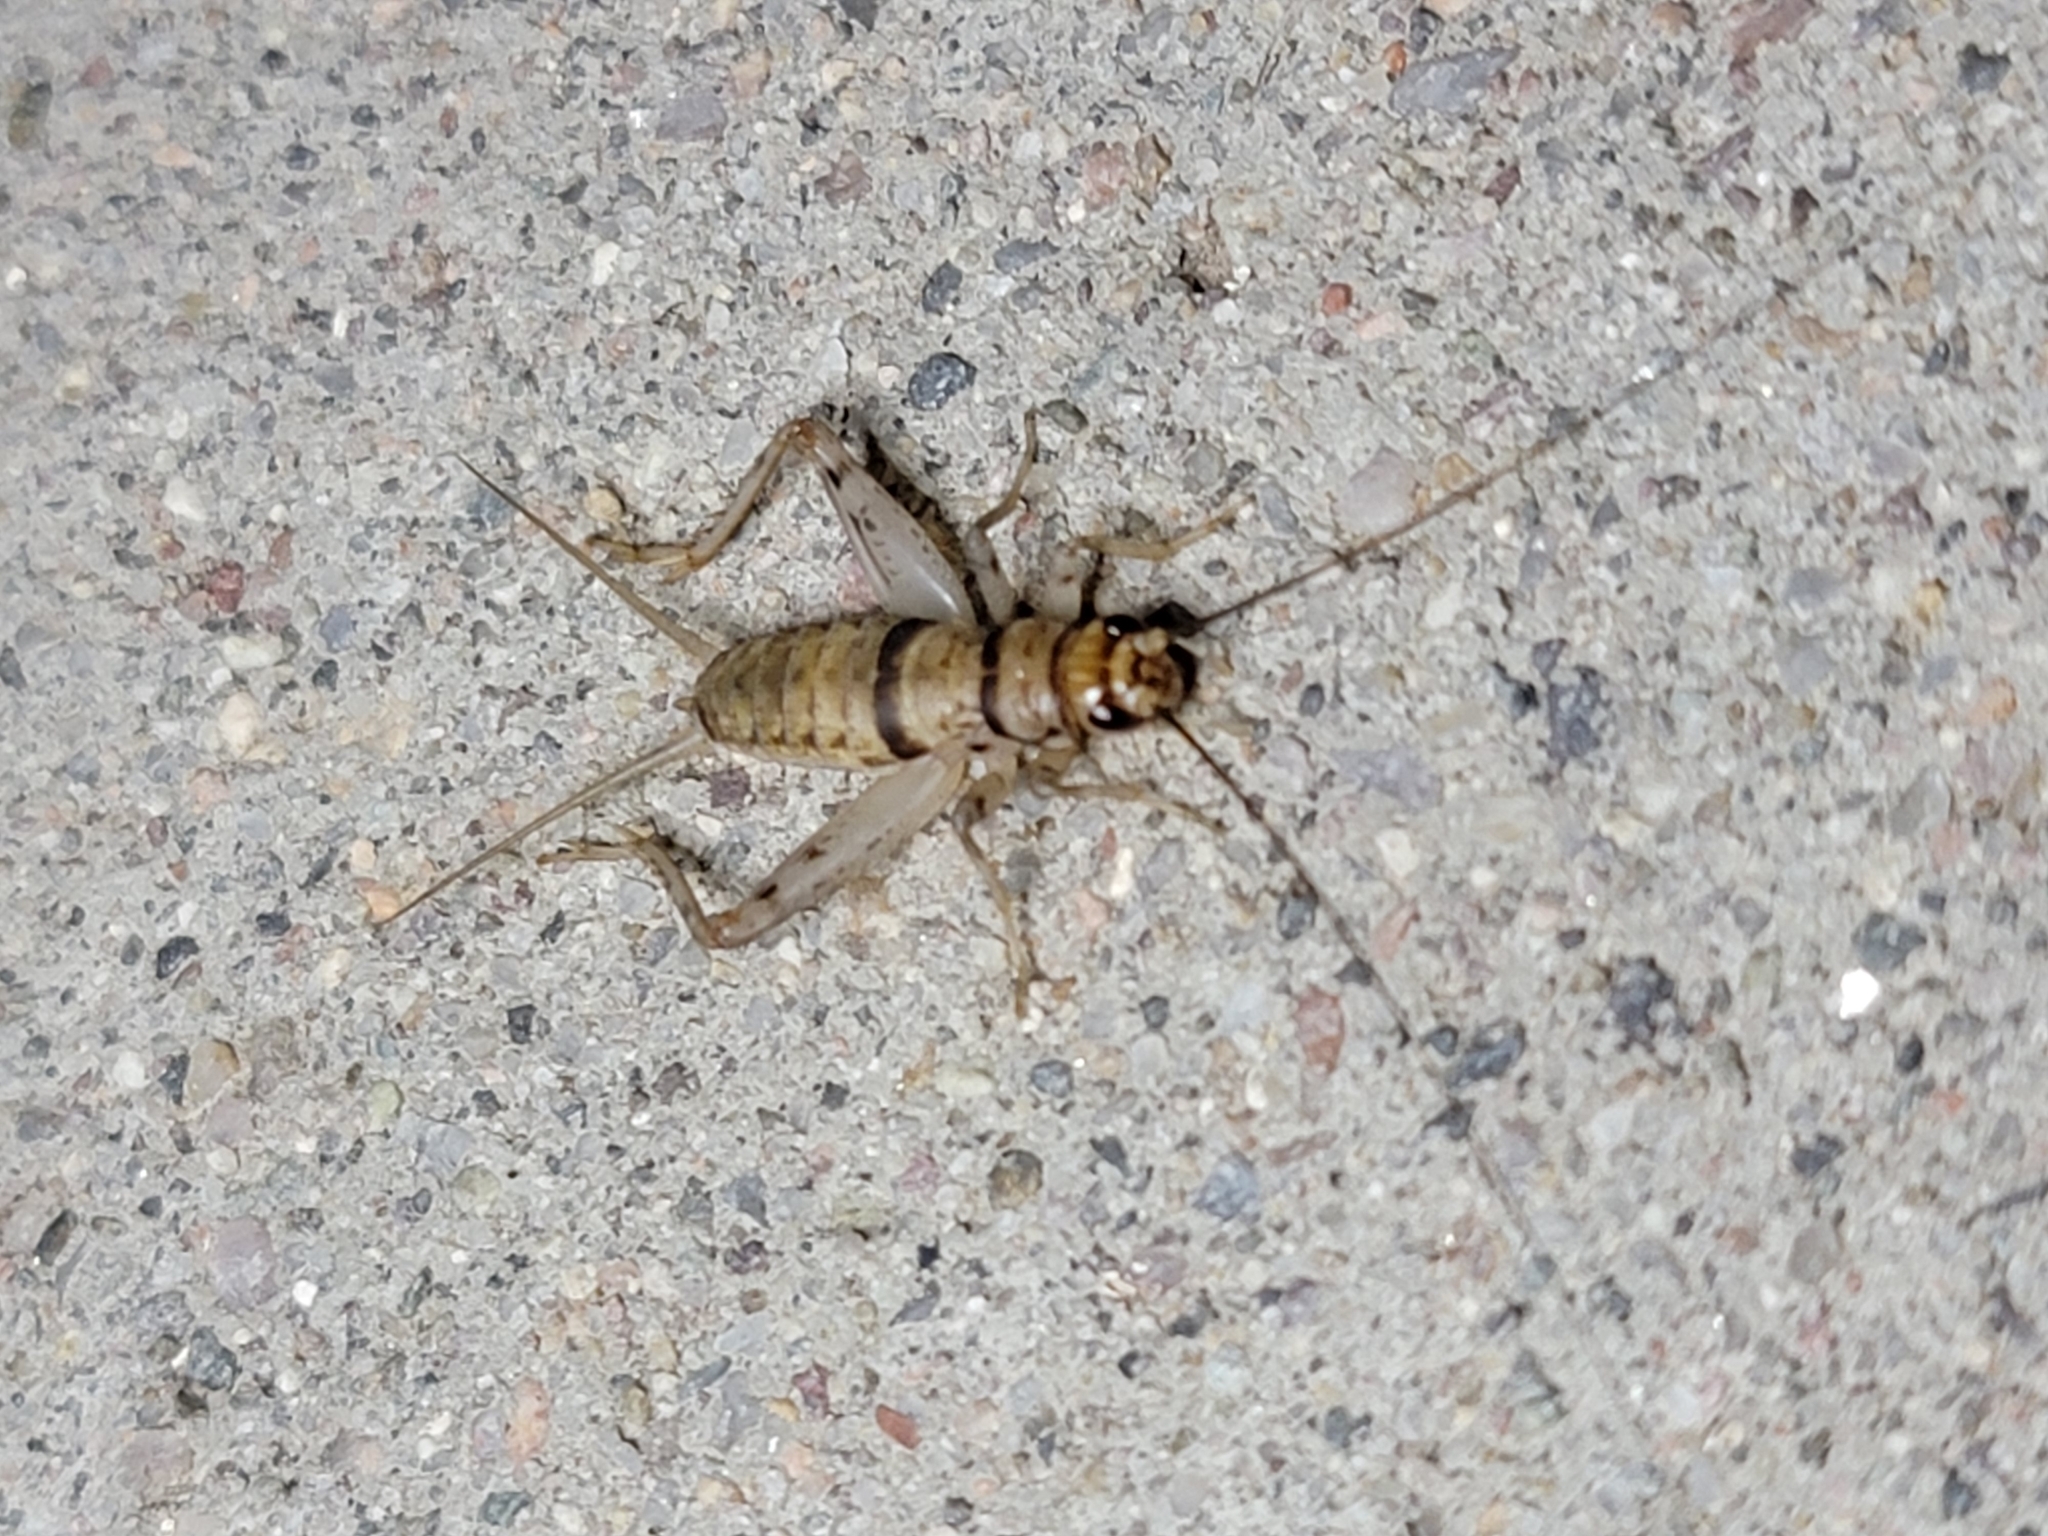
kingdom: Animalia
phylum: Arthropoda
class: Insecta
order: Orthoptera
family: Gryllidae
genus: Gryllodes
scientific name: Gryllodes sigillatus
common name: Tropical house cricket
